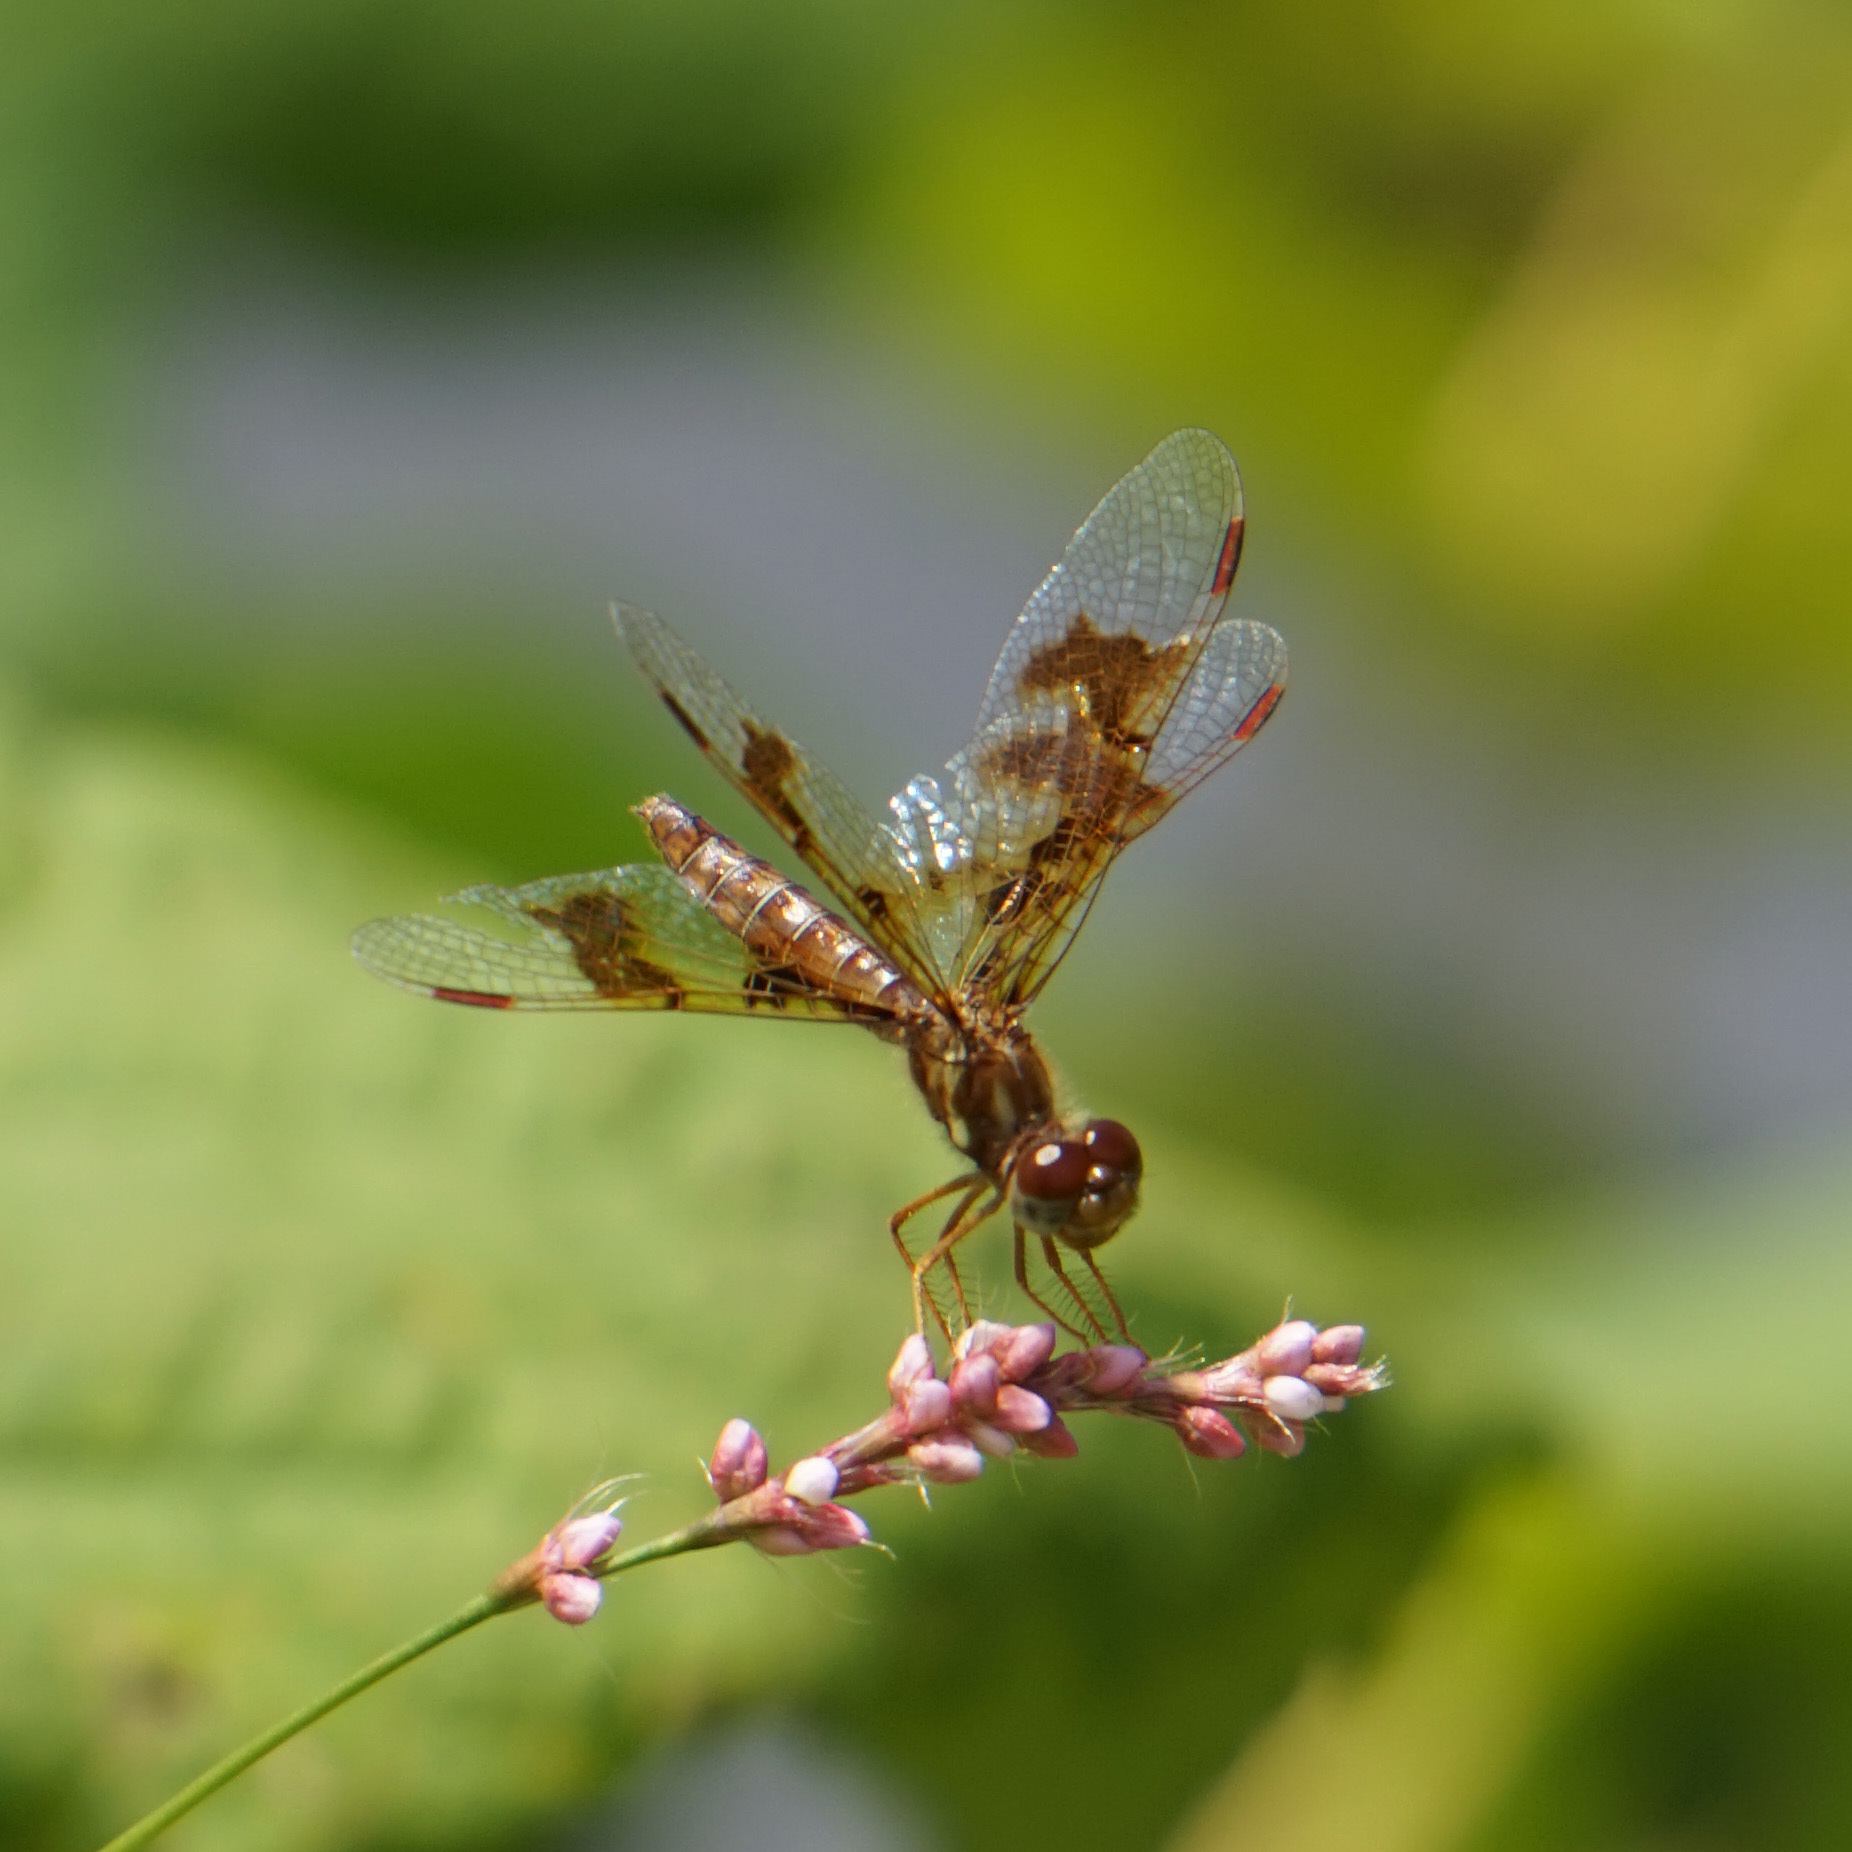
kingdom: Animalia
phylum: Arthropoda
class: Insecta
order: Odonata
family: Libellulidae
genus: Perithemis
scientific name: Perithemis tenera
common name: Eastern amberwing
